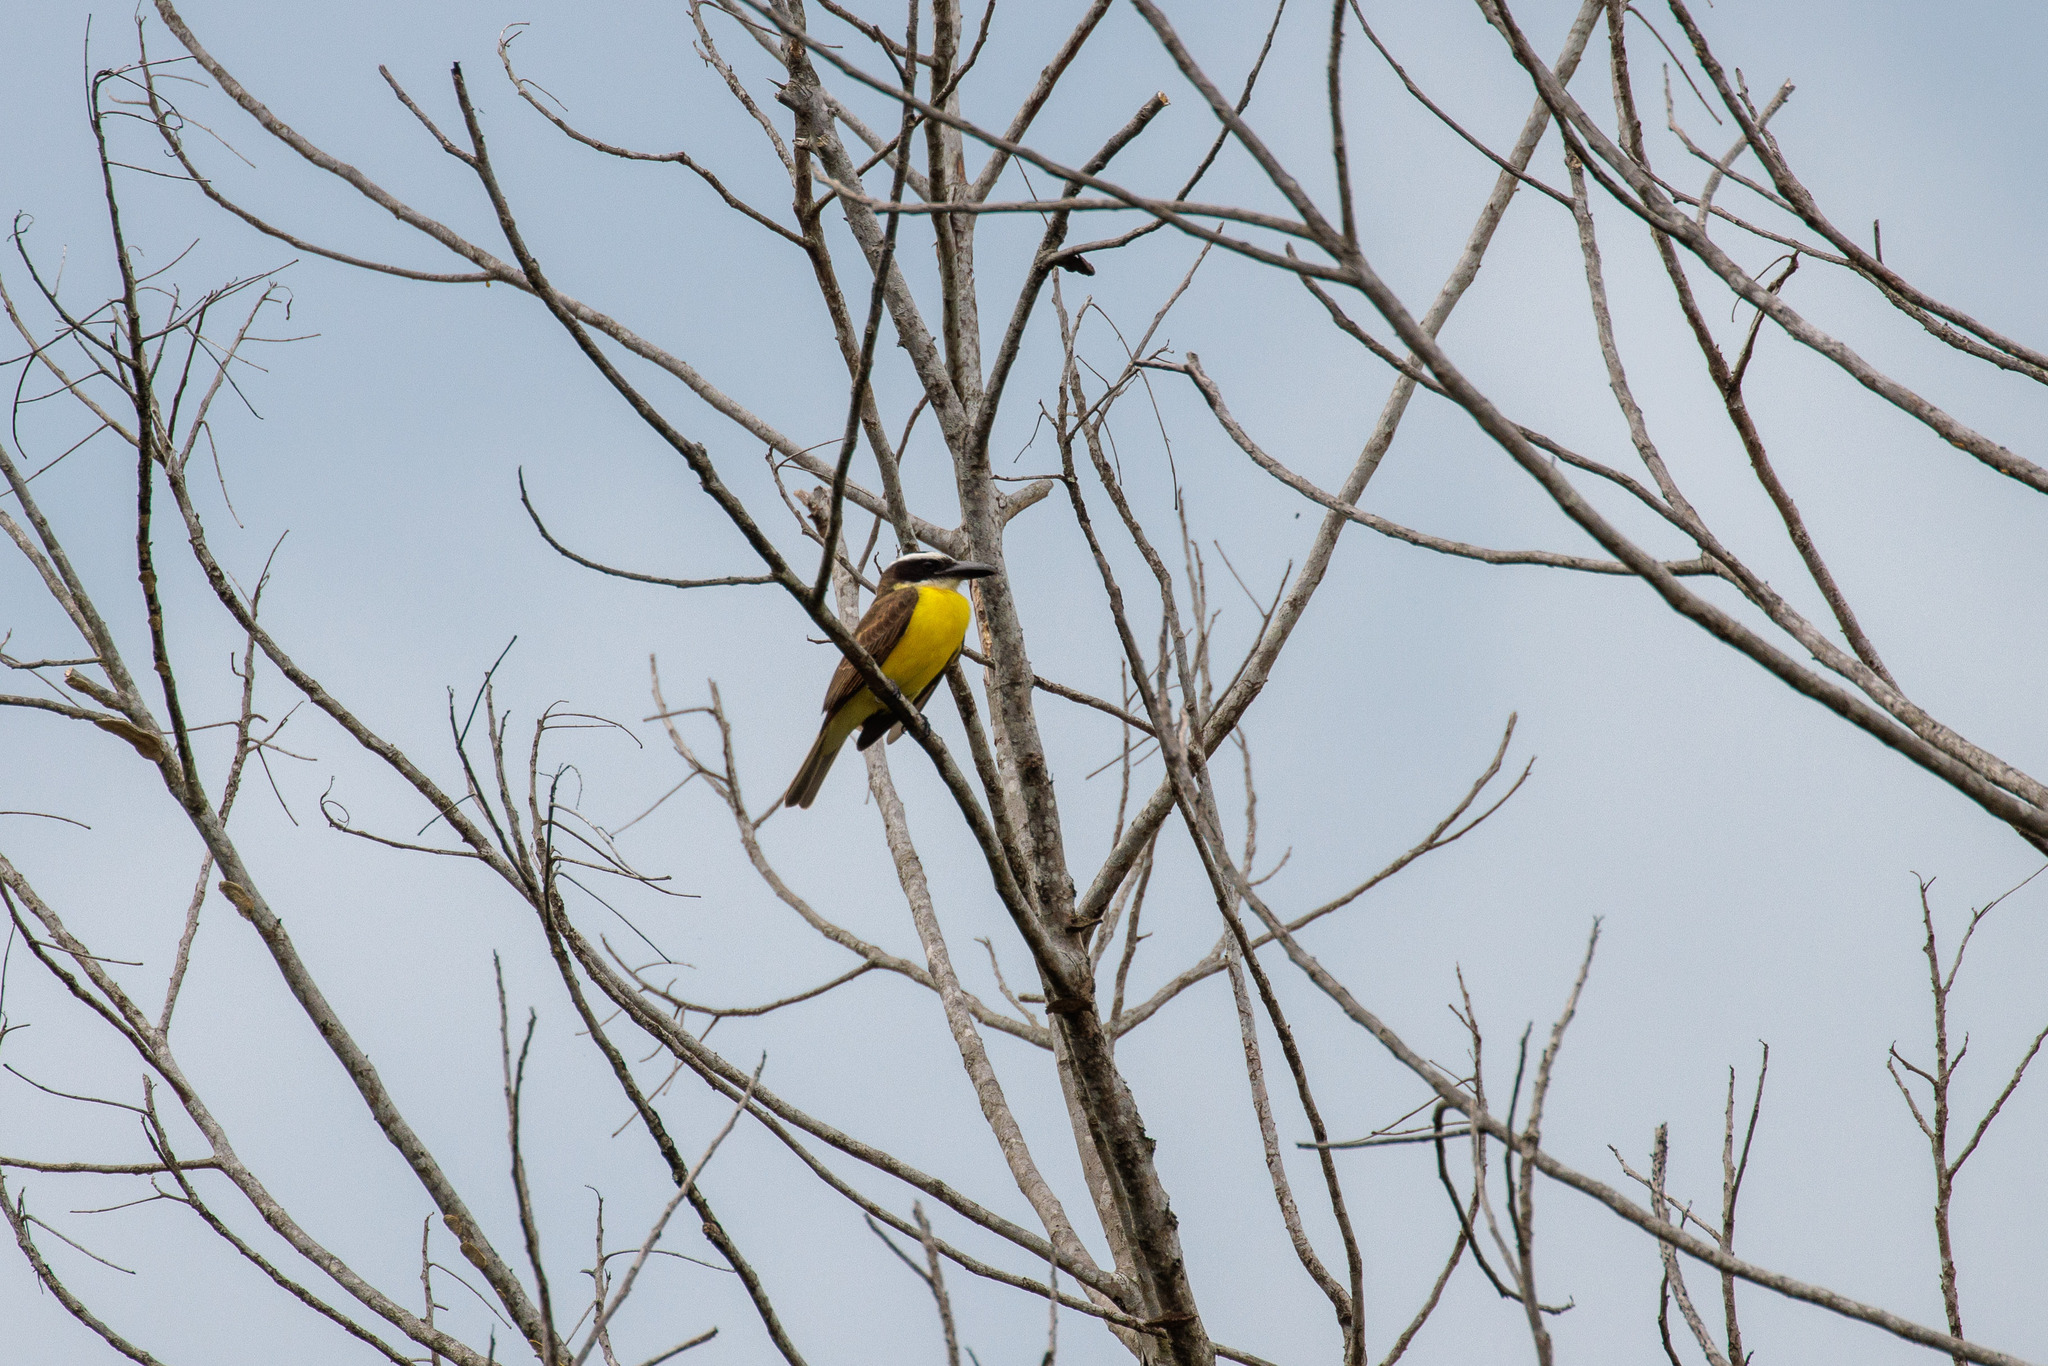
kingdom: Animalia
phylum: Chordata
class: Aves
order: Passeriformes
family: Tyrannidae
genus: Megarynchus
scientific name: Megarynchus pitangua
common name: Boat-billed flycatcher
